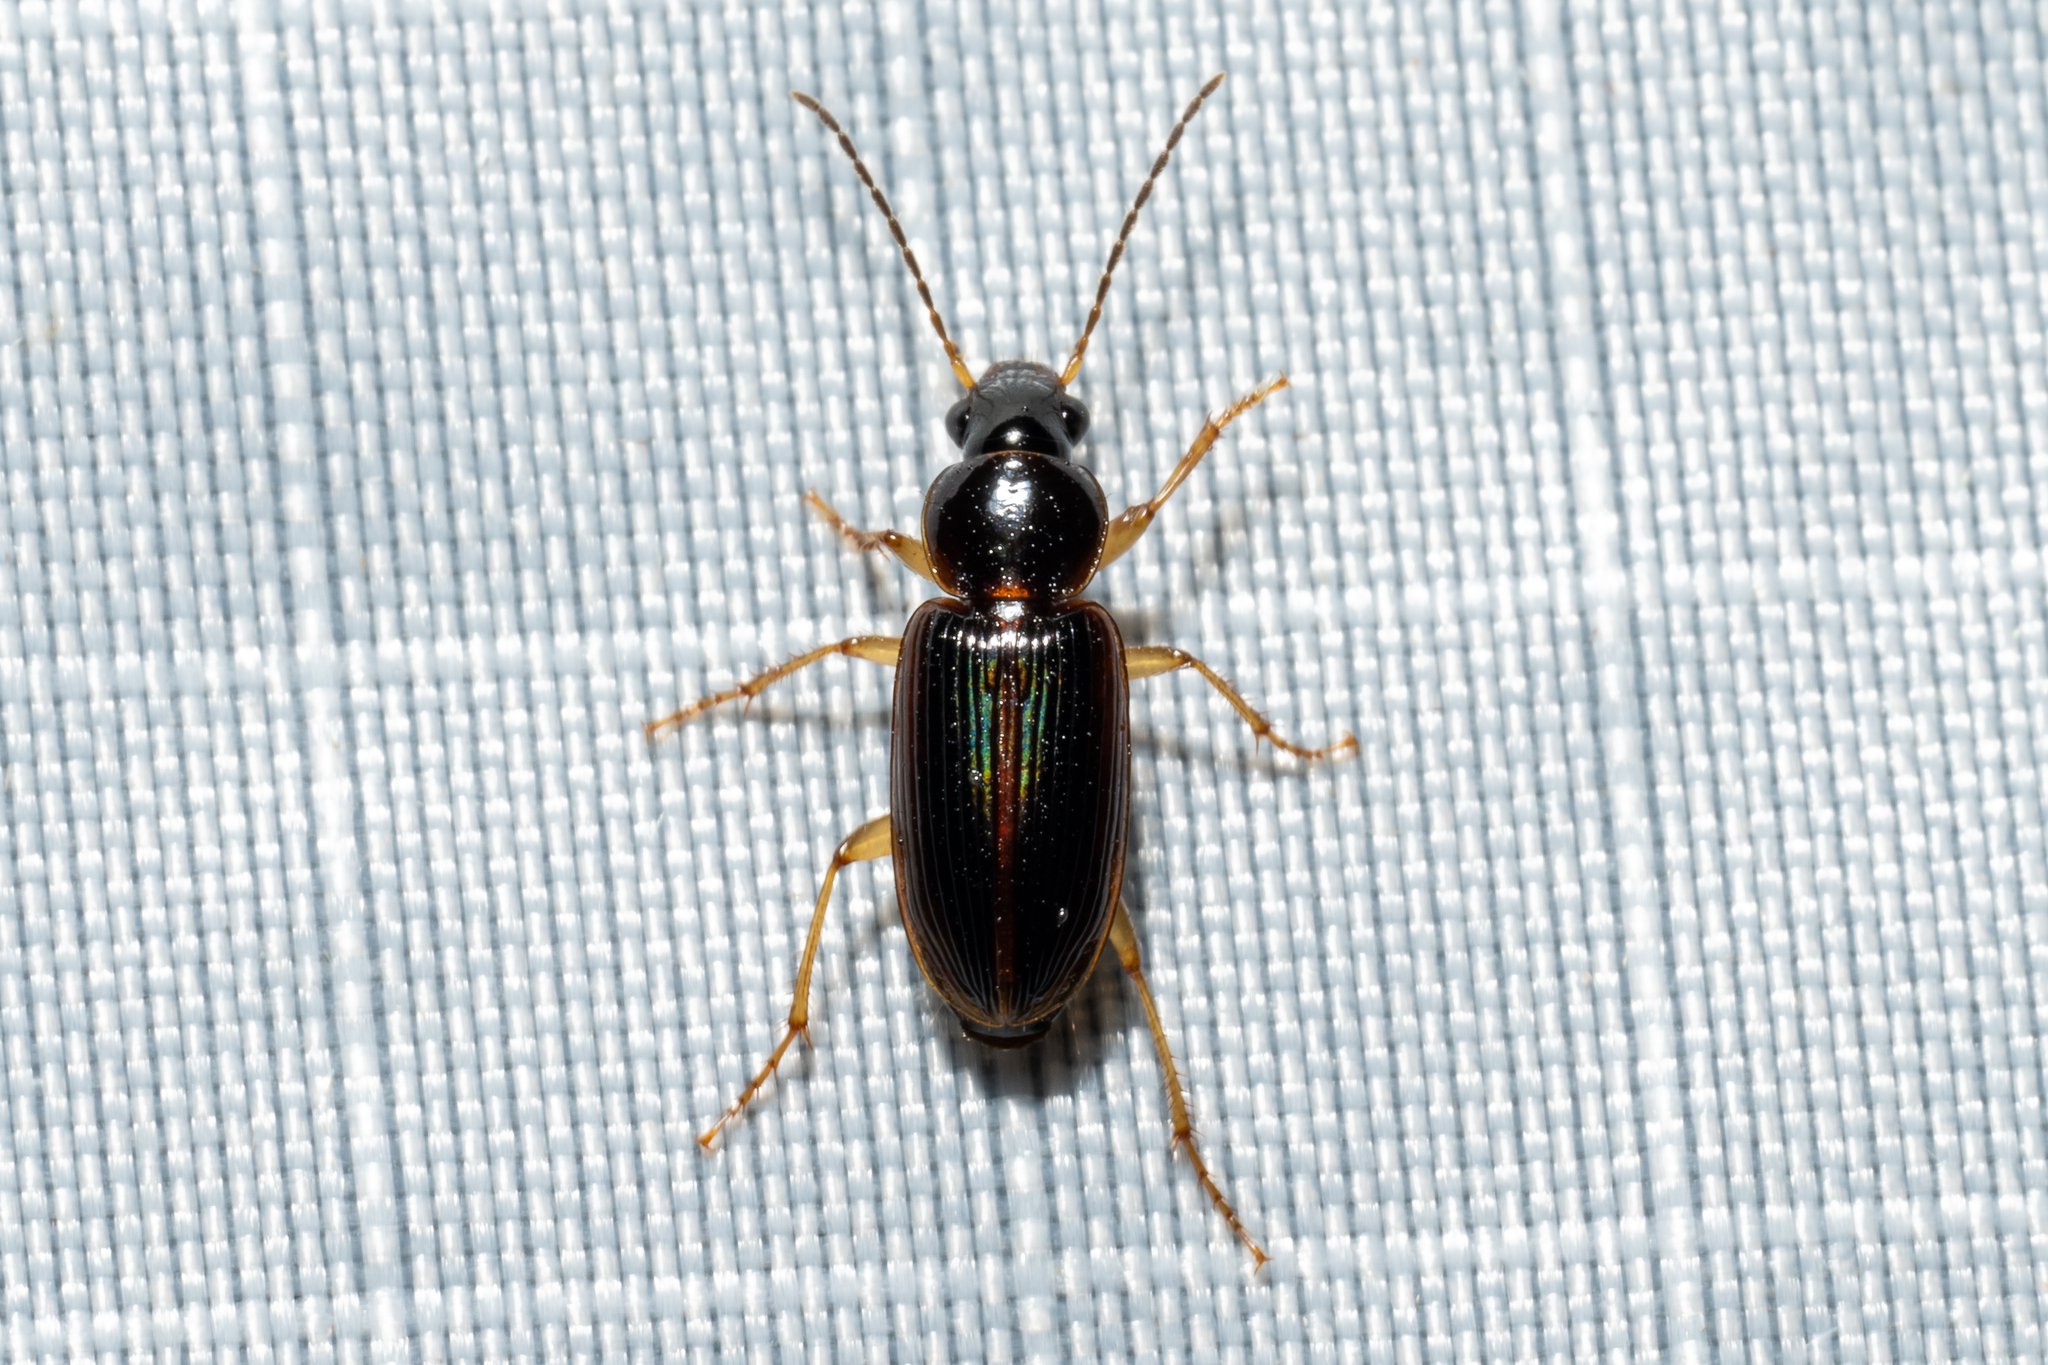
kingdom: Animalia
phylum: Arthropoda
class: Insecta
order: Coleoptera
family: Carabidae
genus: Stenolophus
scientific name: Stenolophus ochropezus
